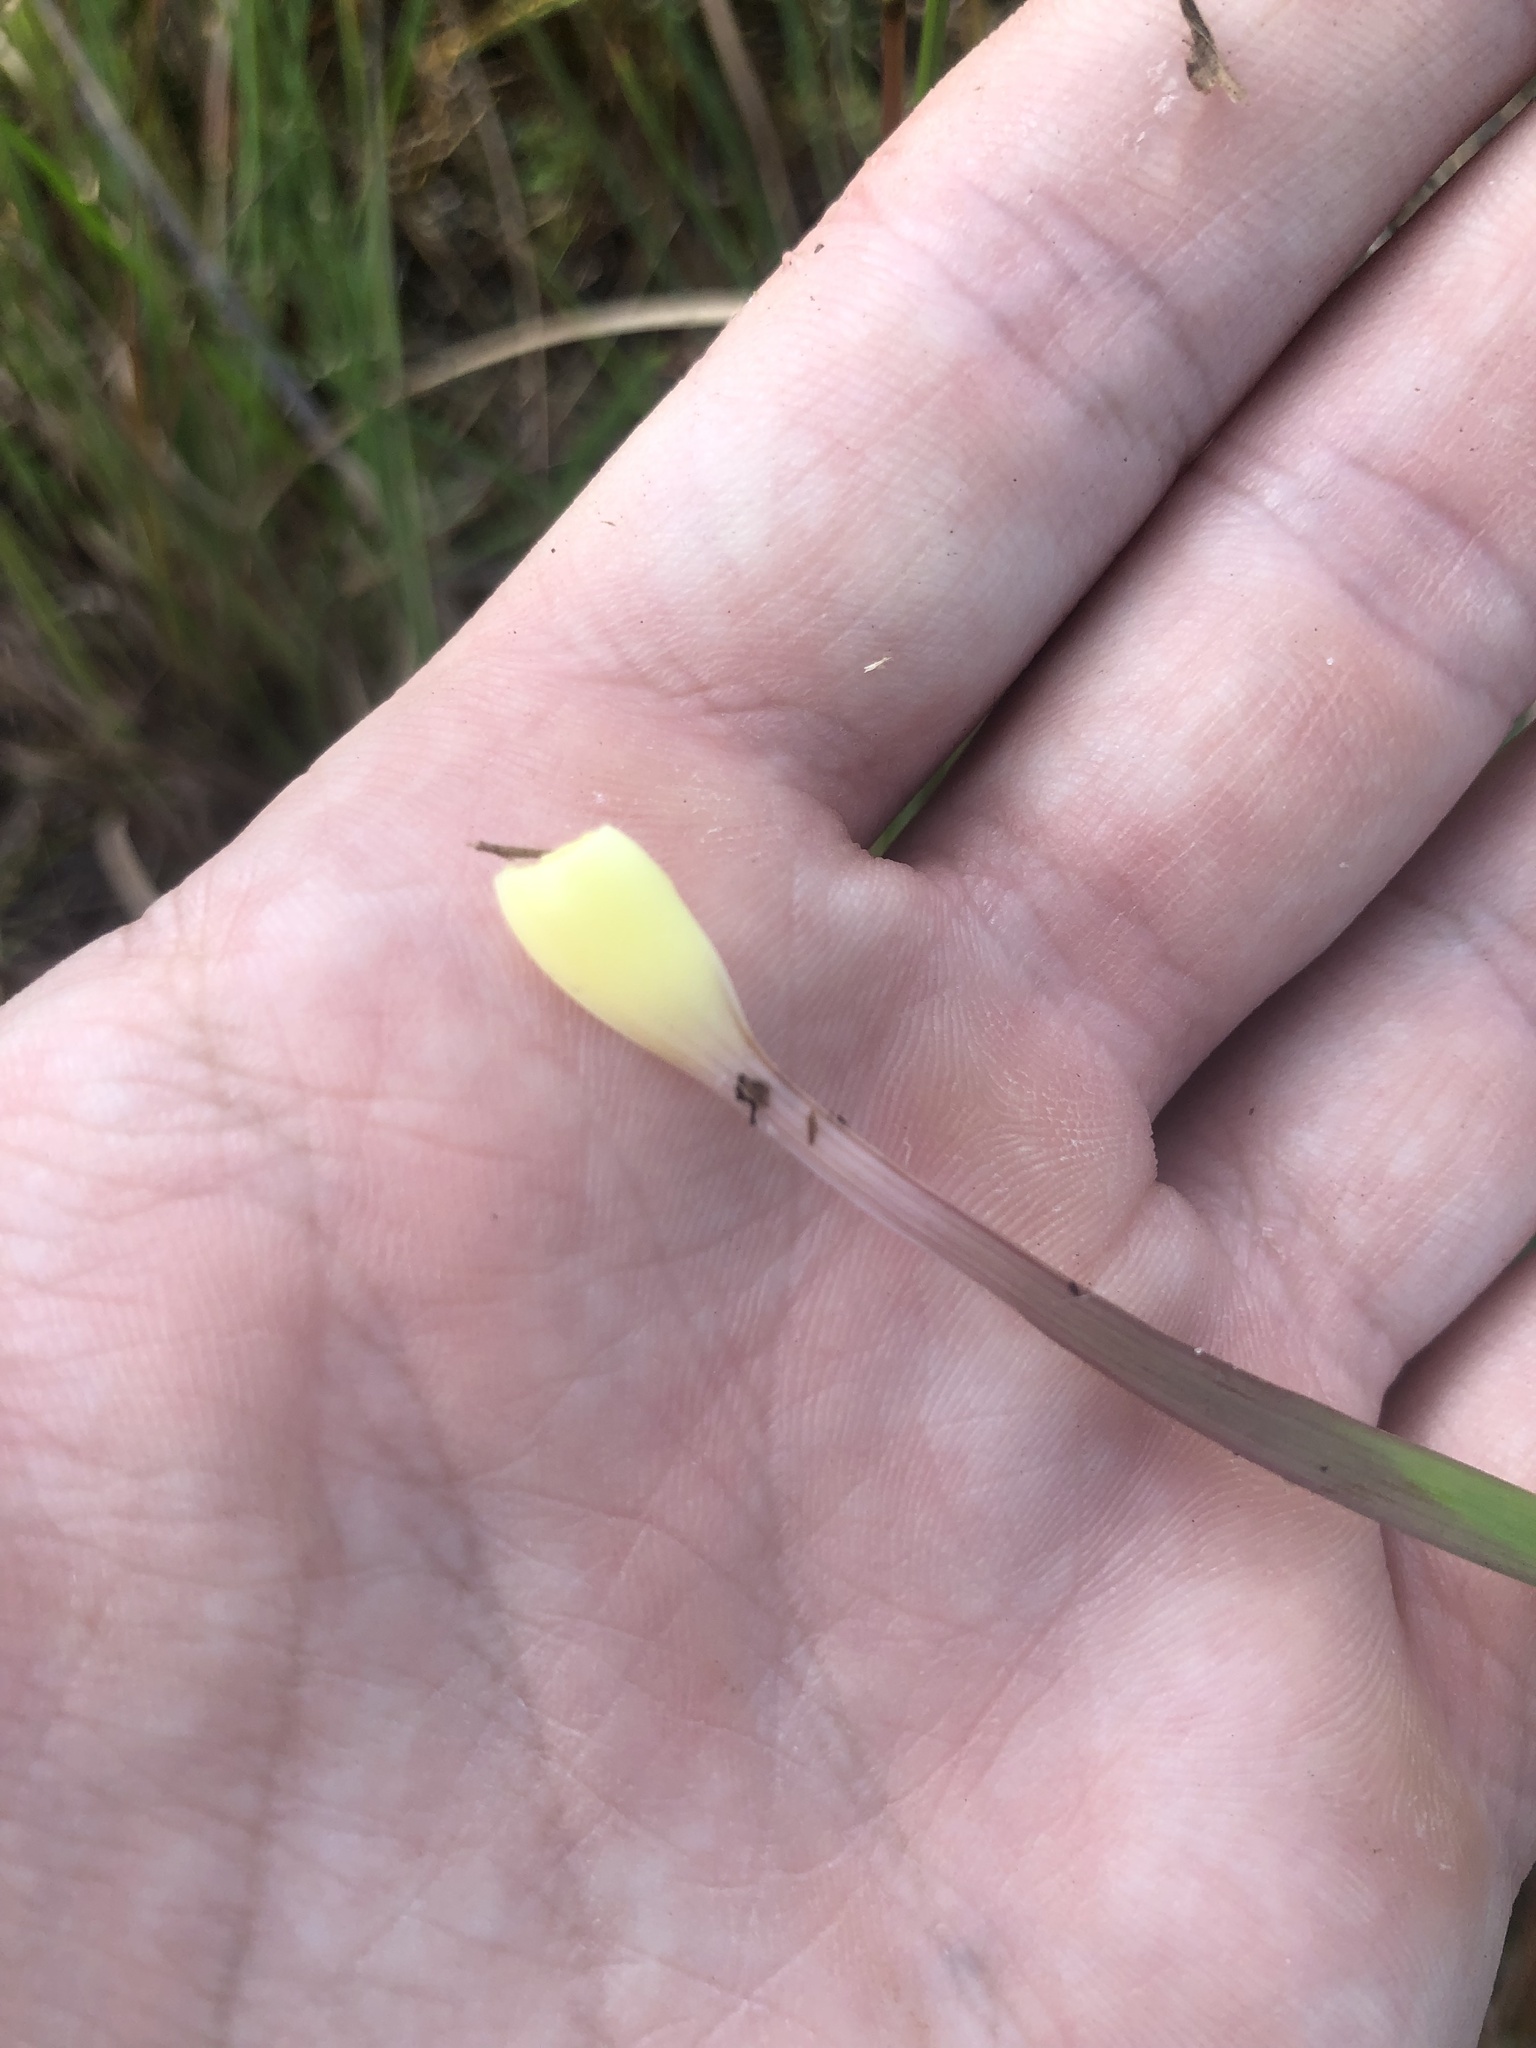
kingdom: Plantae
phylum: Tracheophyta
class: Liliopsida
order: Poales
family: Xyridaceae
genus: Xyris
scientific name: Xyris platylepis
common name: Tall yelloweyed grass
